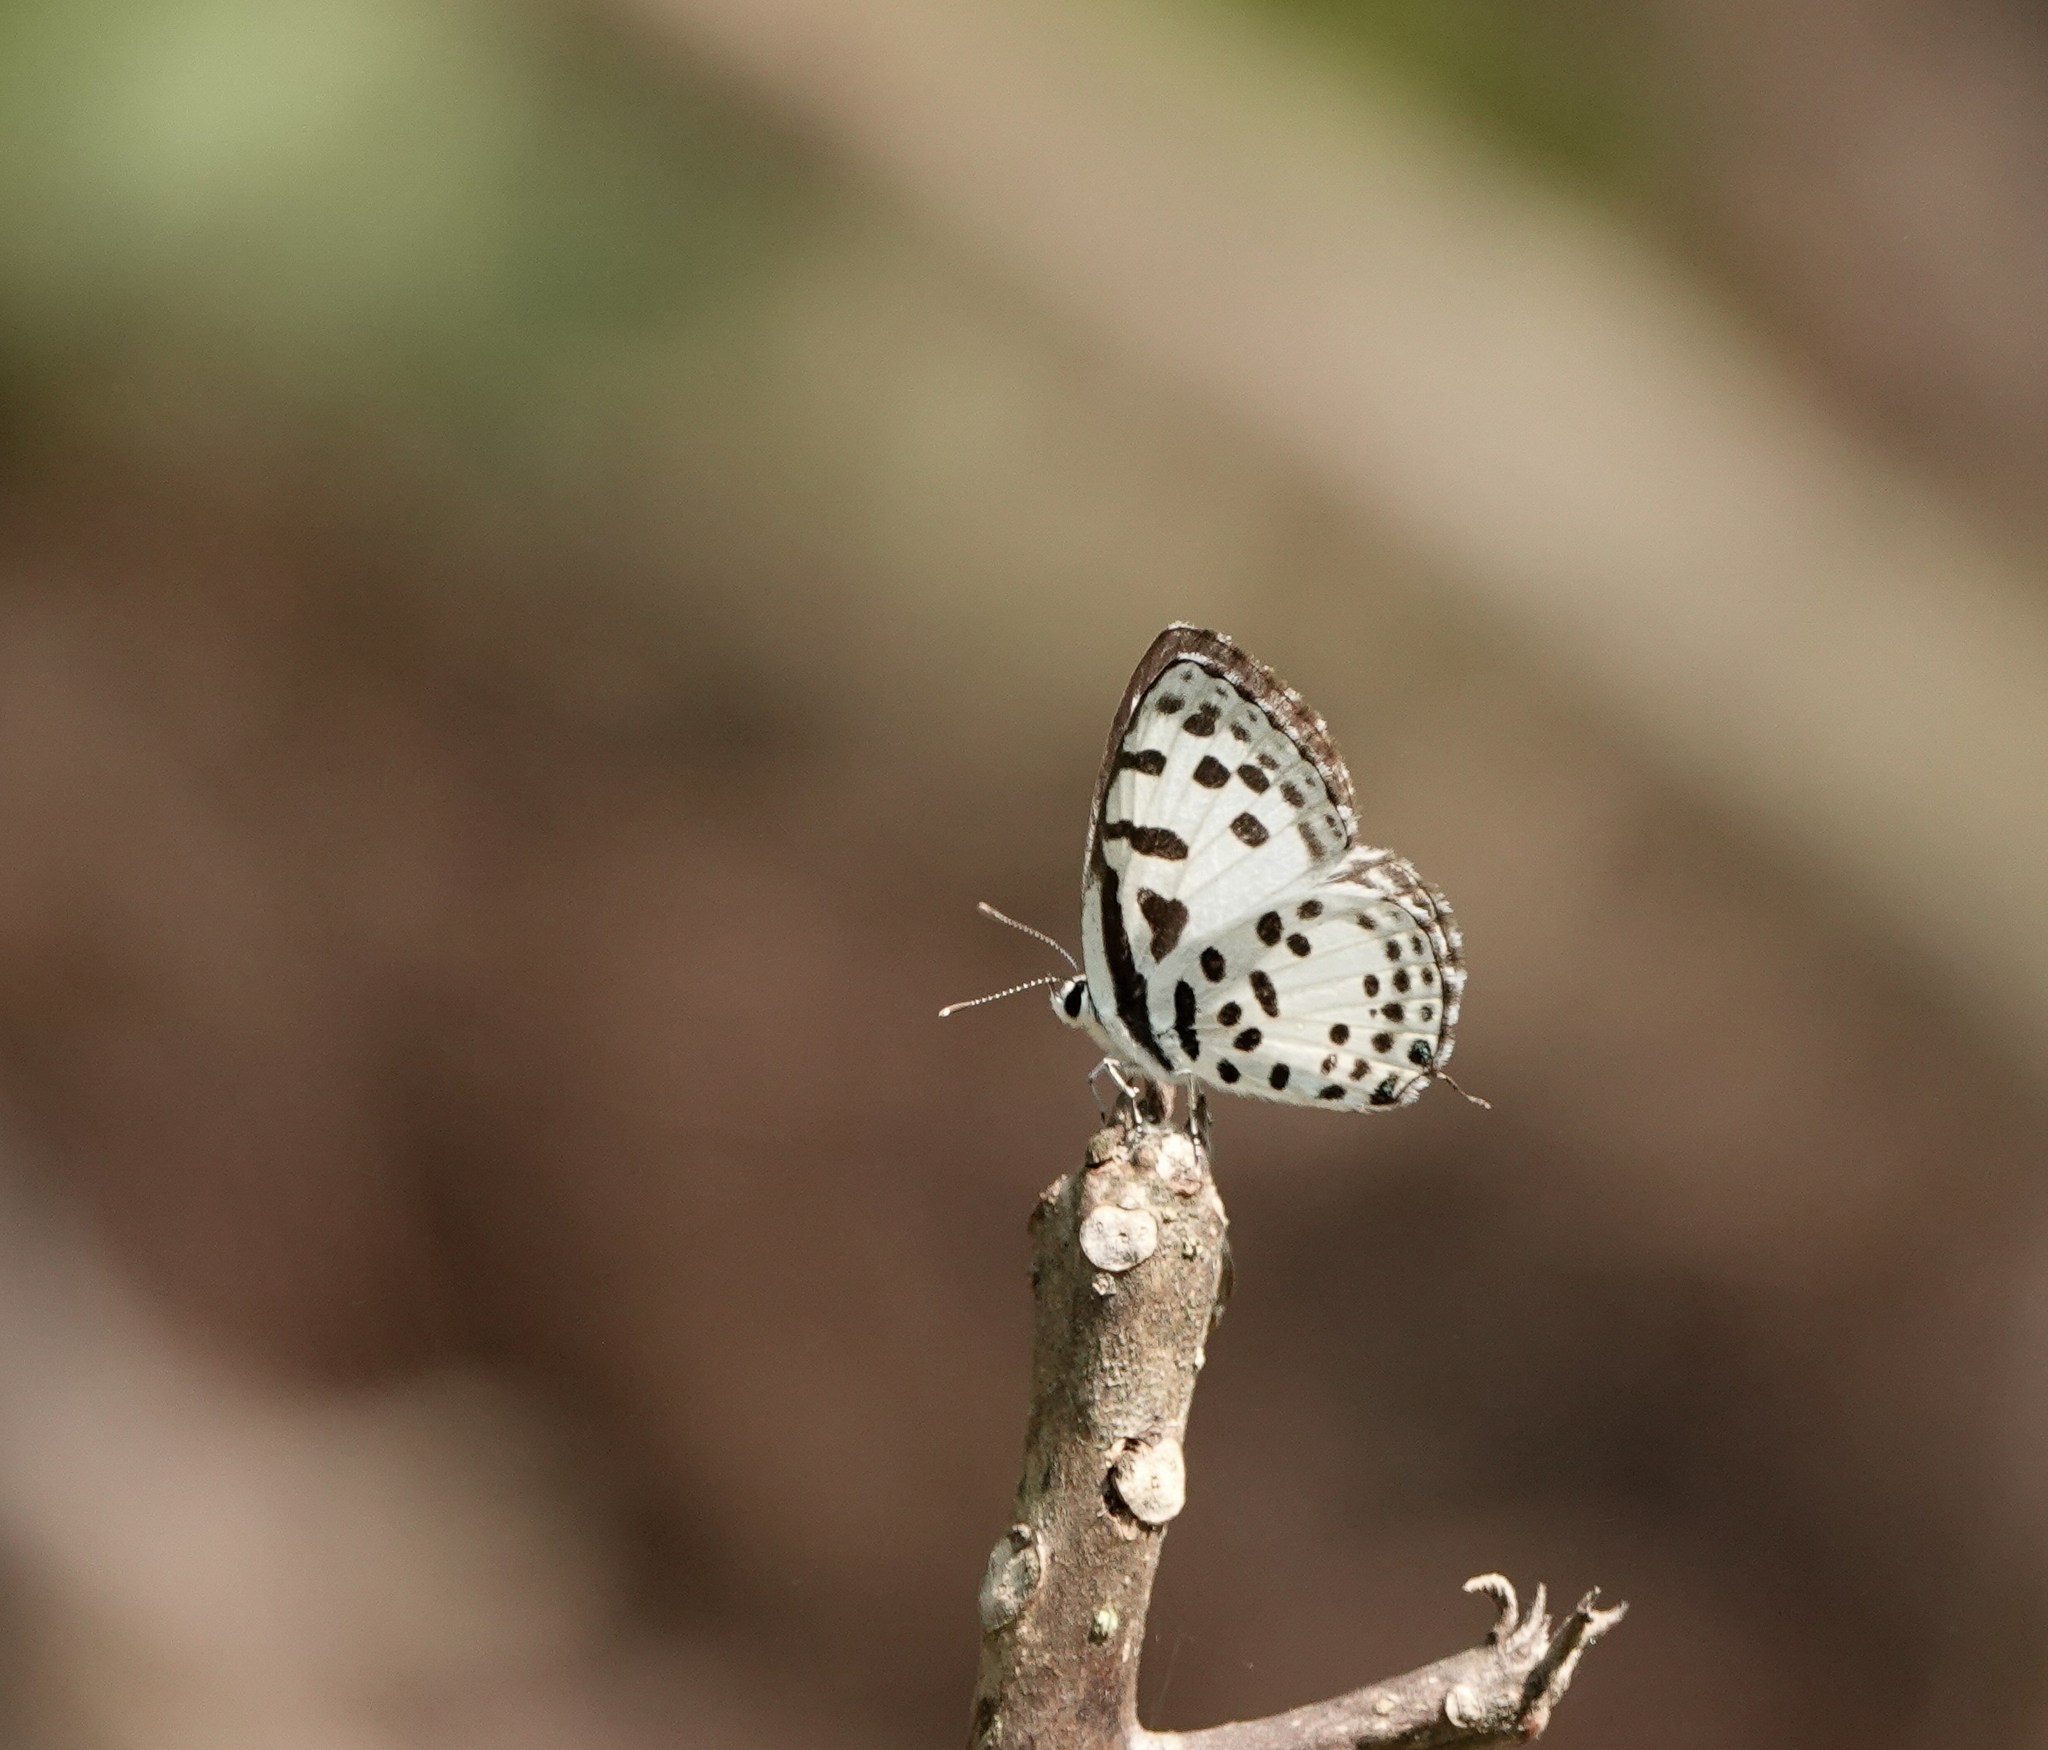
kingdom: Animalia
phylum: Arthropoda
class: Insecta
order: Lepidoptera
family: Lycaenidae
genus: Castalius
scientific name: Castalius rosimon
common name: Common pierrot
